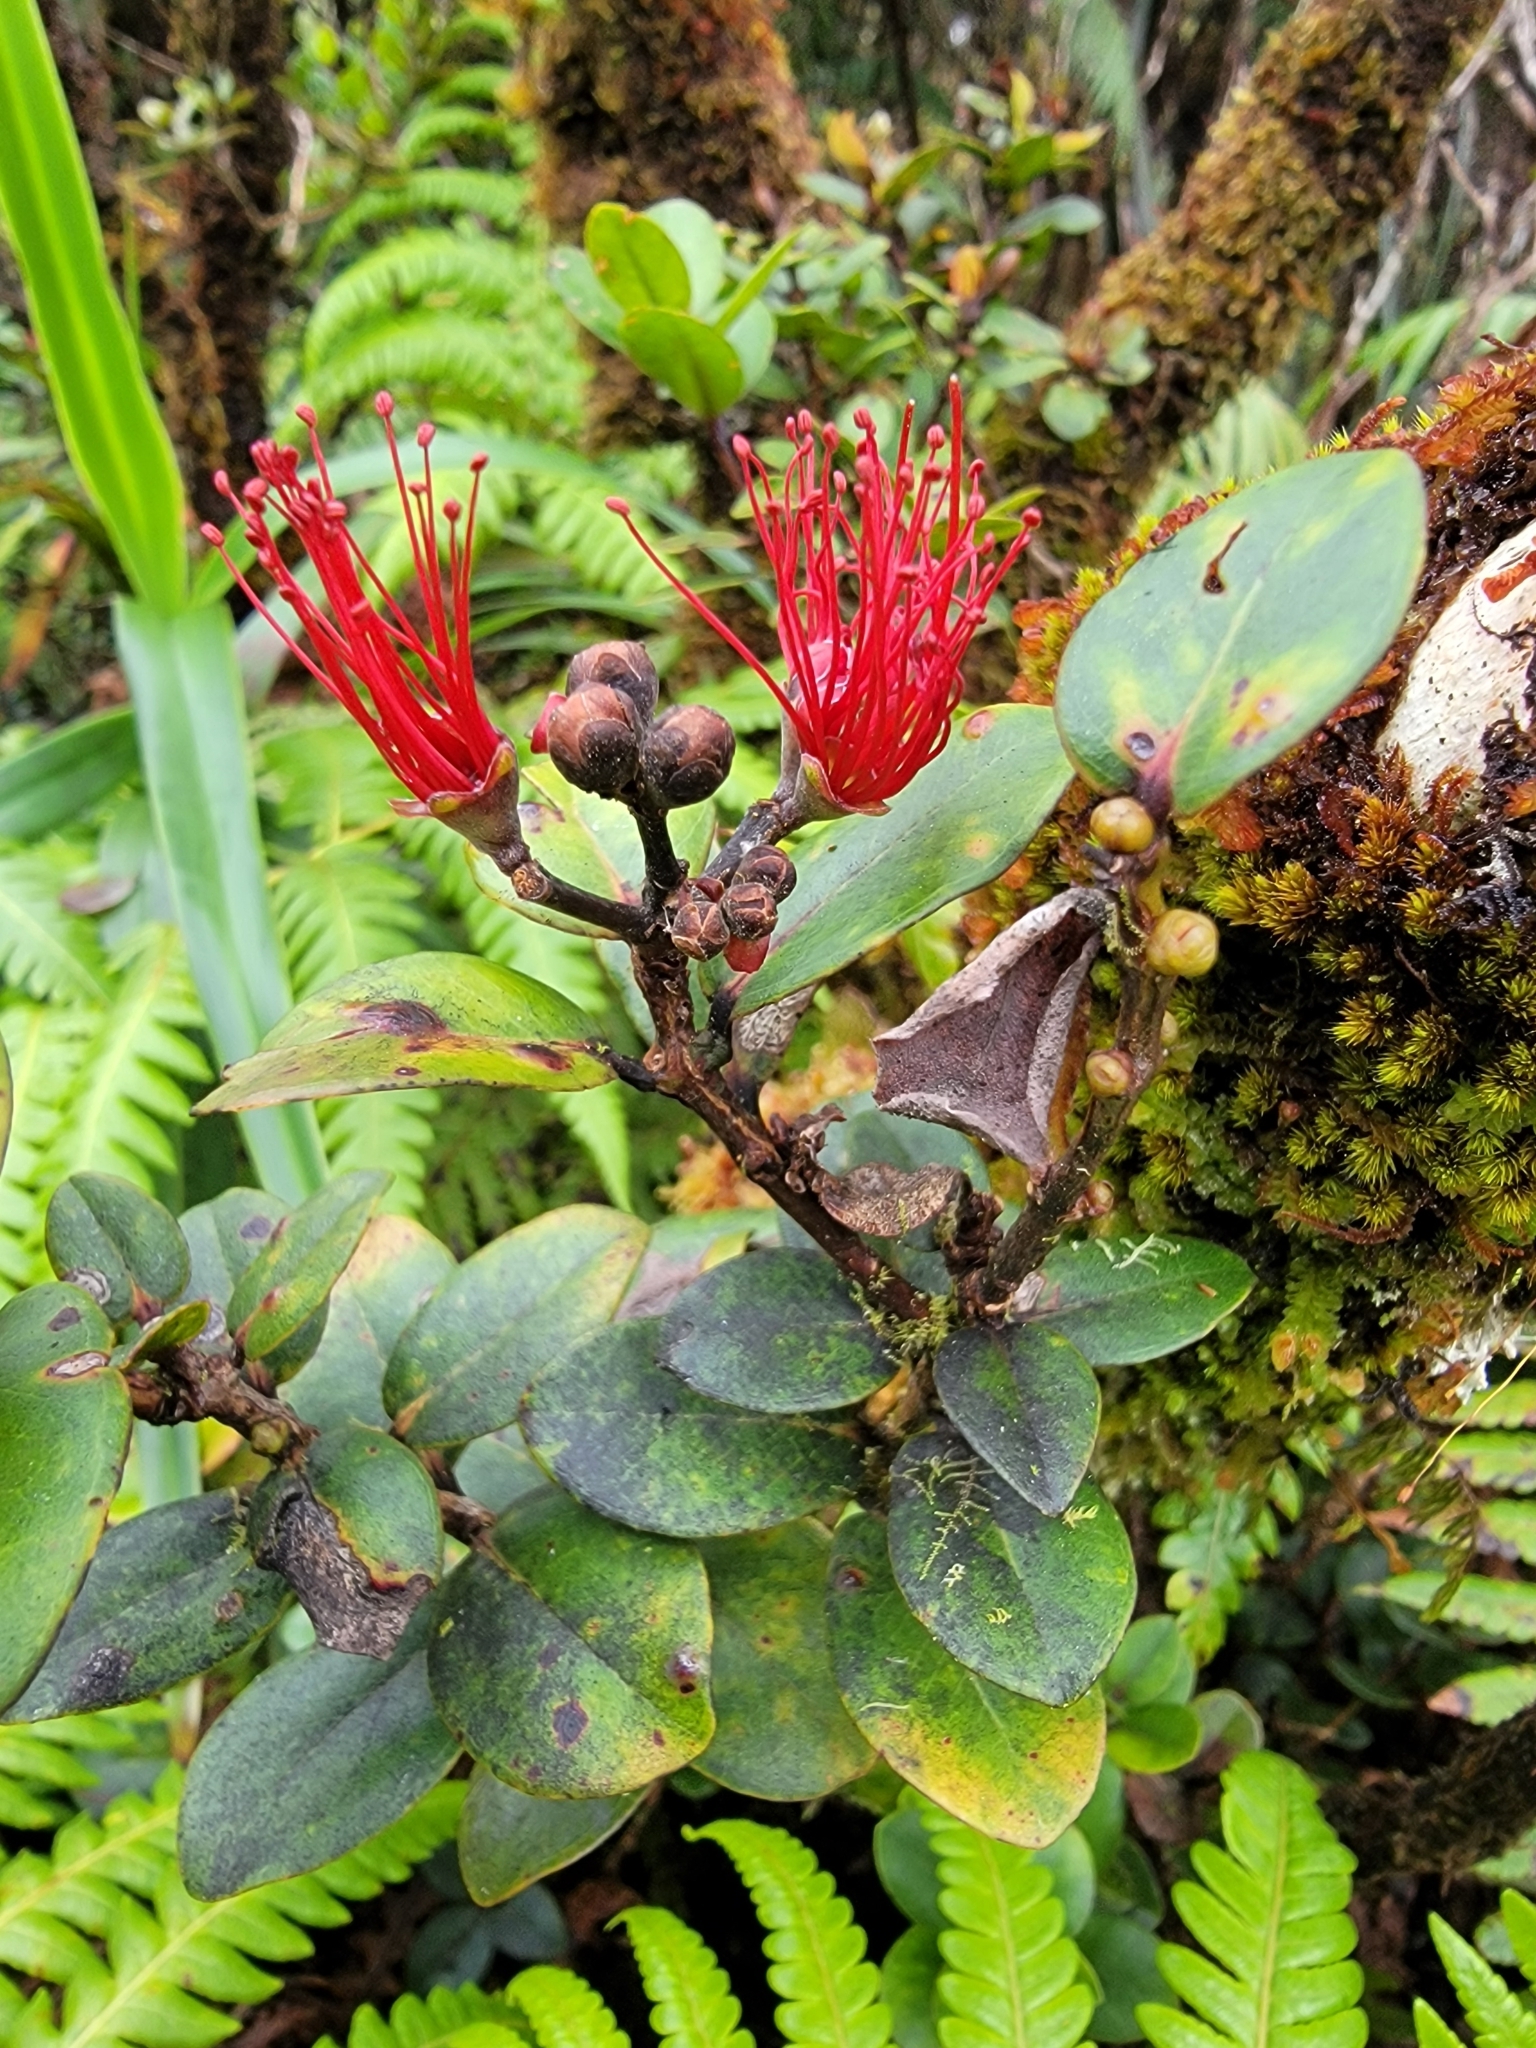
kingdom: Plantae
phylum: Tracheophyta
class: Magnoliopsida
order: Myrtales
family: Myrtaceae
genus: Metrosideros
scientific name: Metrosideros polymorpha
